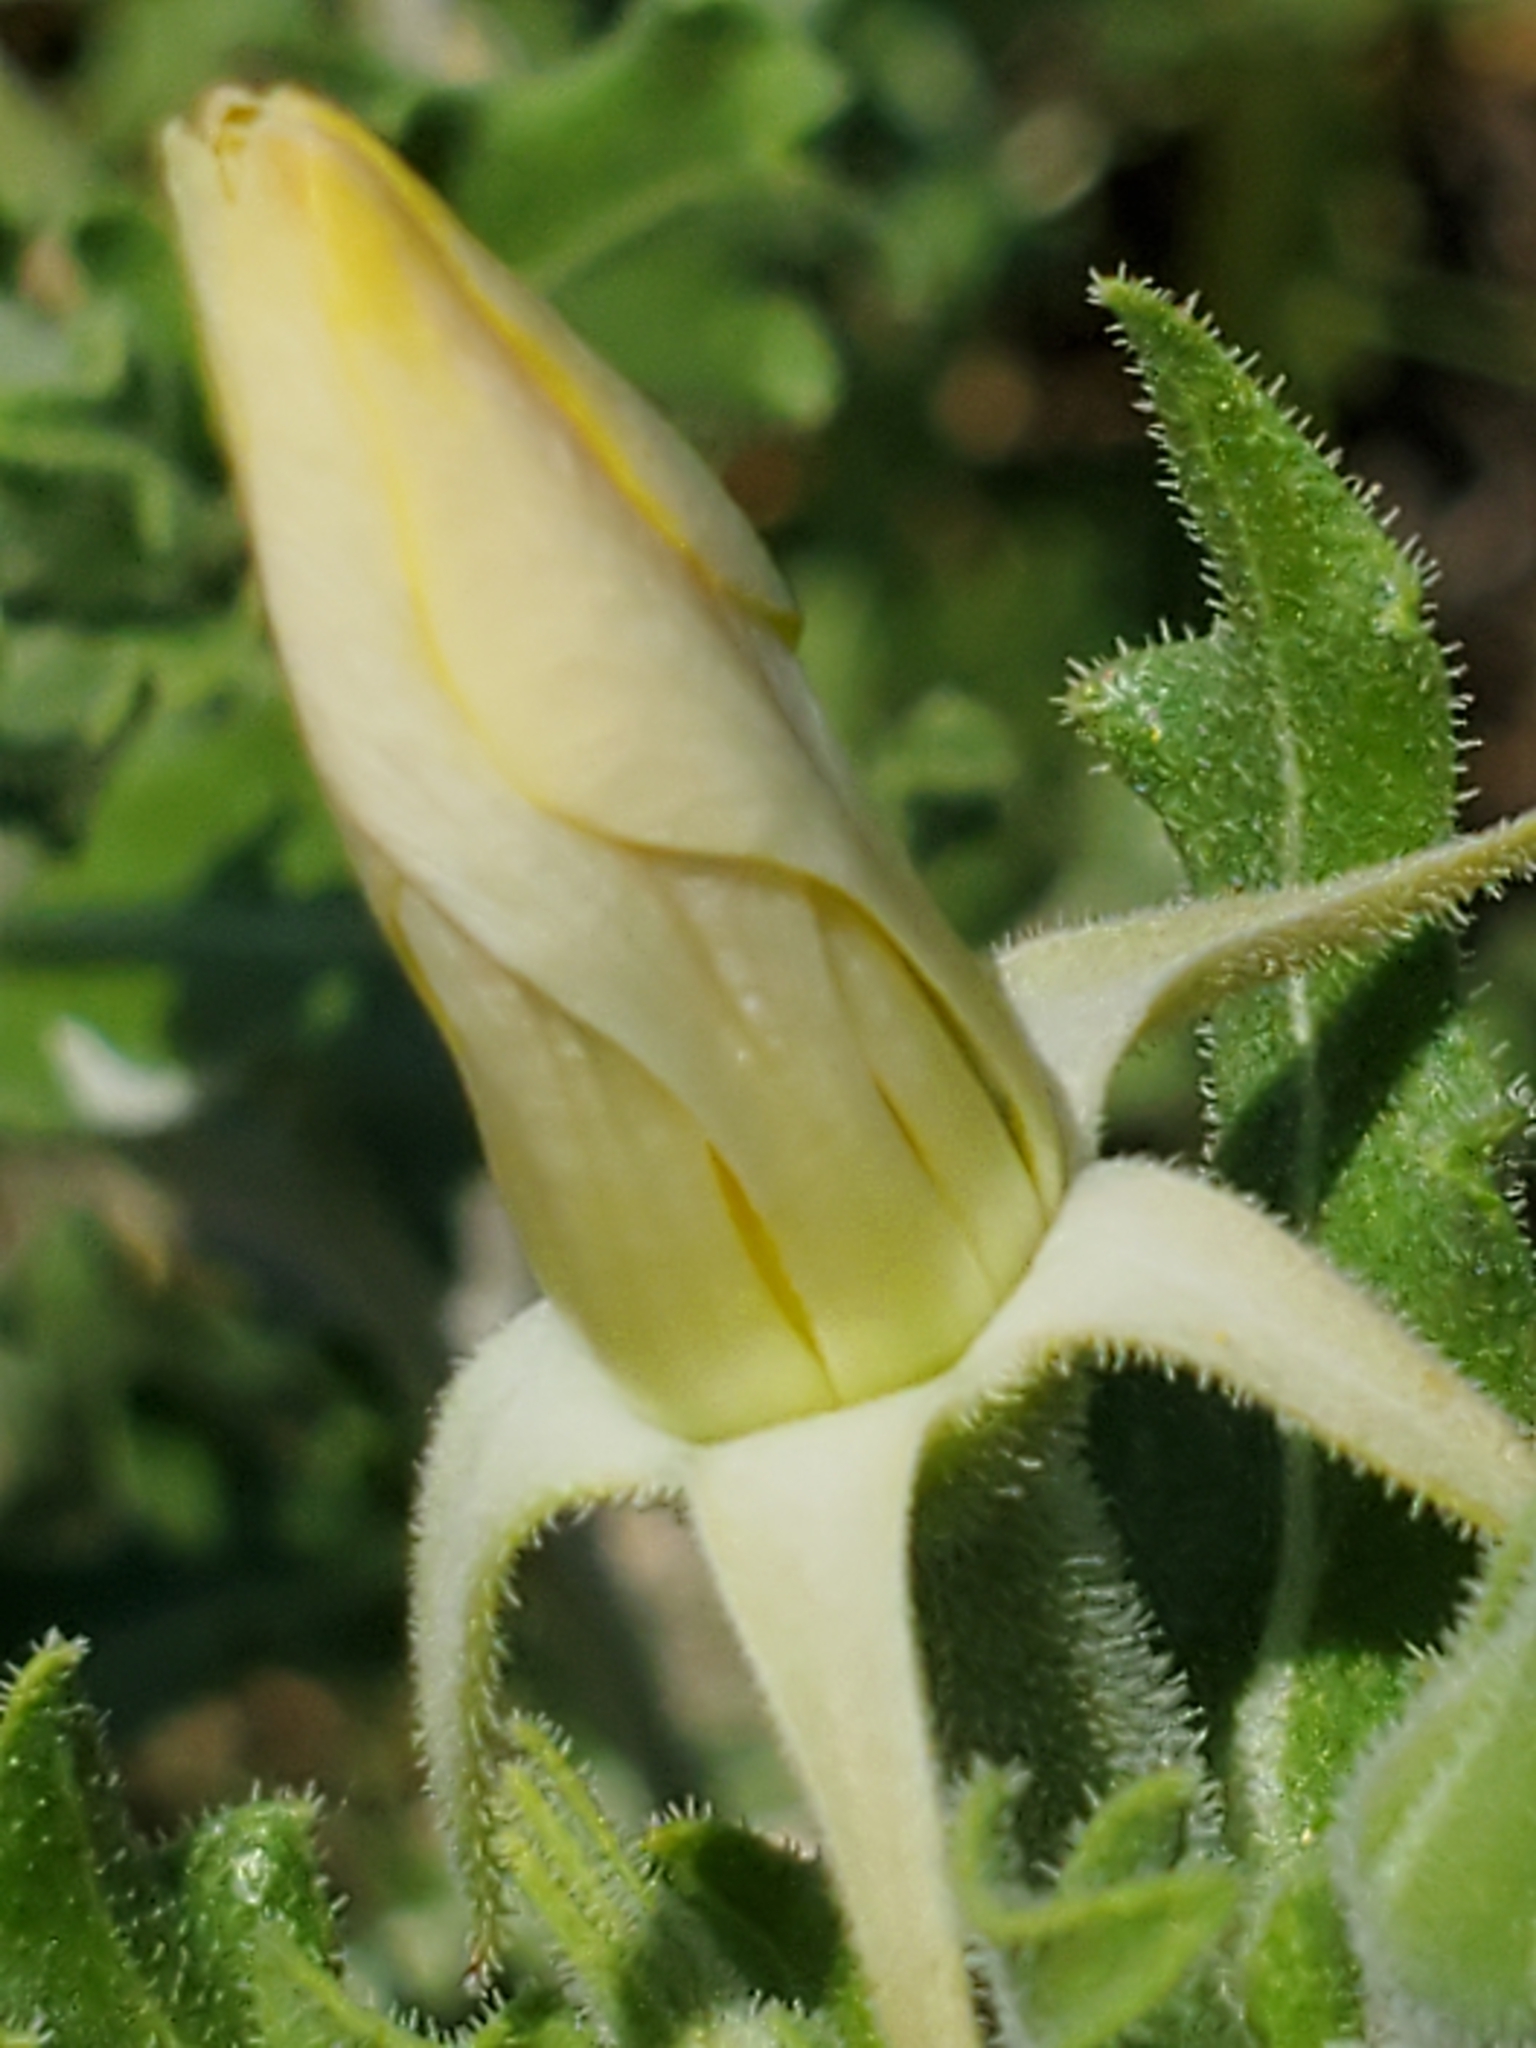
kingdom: Plantae
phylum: Tracheophyta
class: Magnoliopsida
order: Cornales
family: Loasaceae
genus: Mentzelia
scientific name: Mentzelia oligosperma
